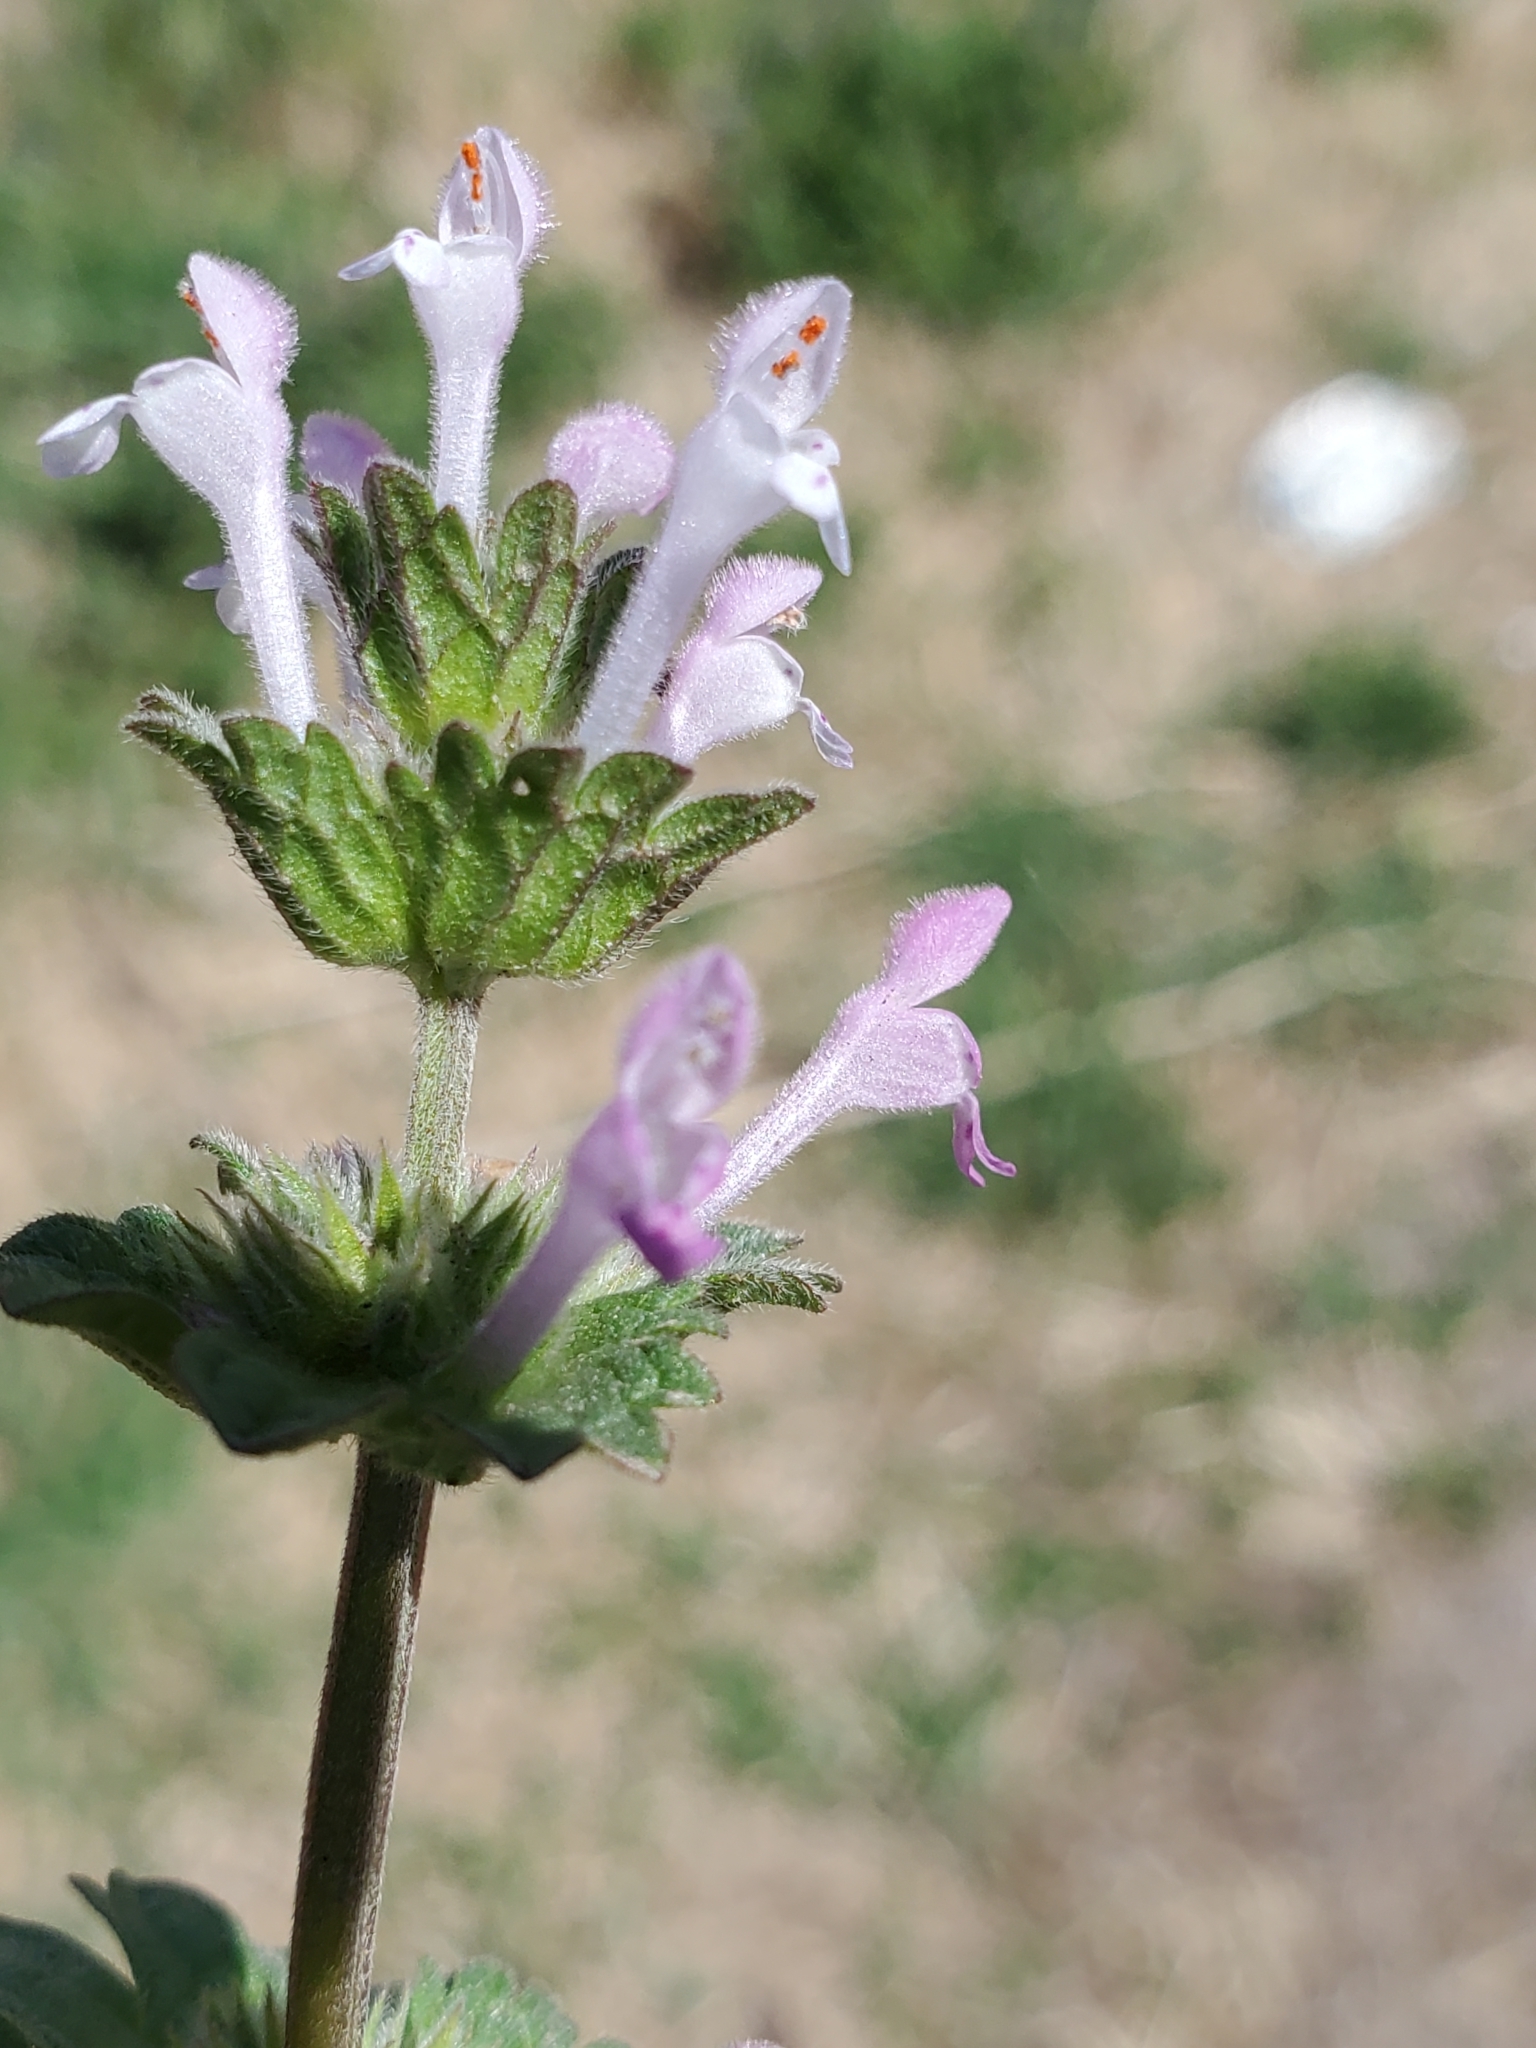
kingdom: Plantae
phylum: Tracheophyta
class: Magnoliopsida
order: Lamiales
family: Lamiaceae
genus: Lamium
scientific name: Lamium amplexicaule
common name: Henbit dead-nettle
